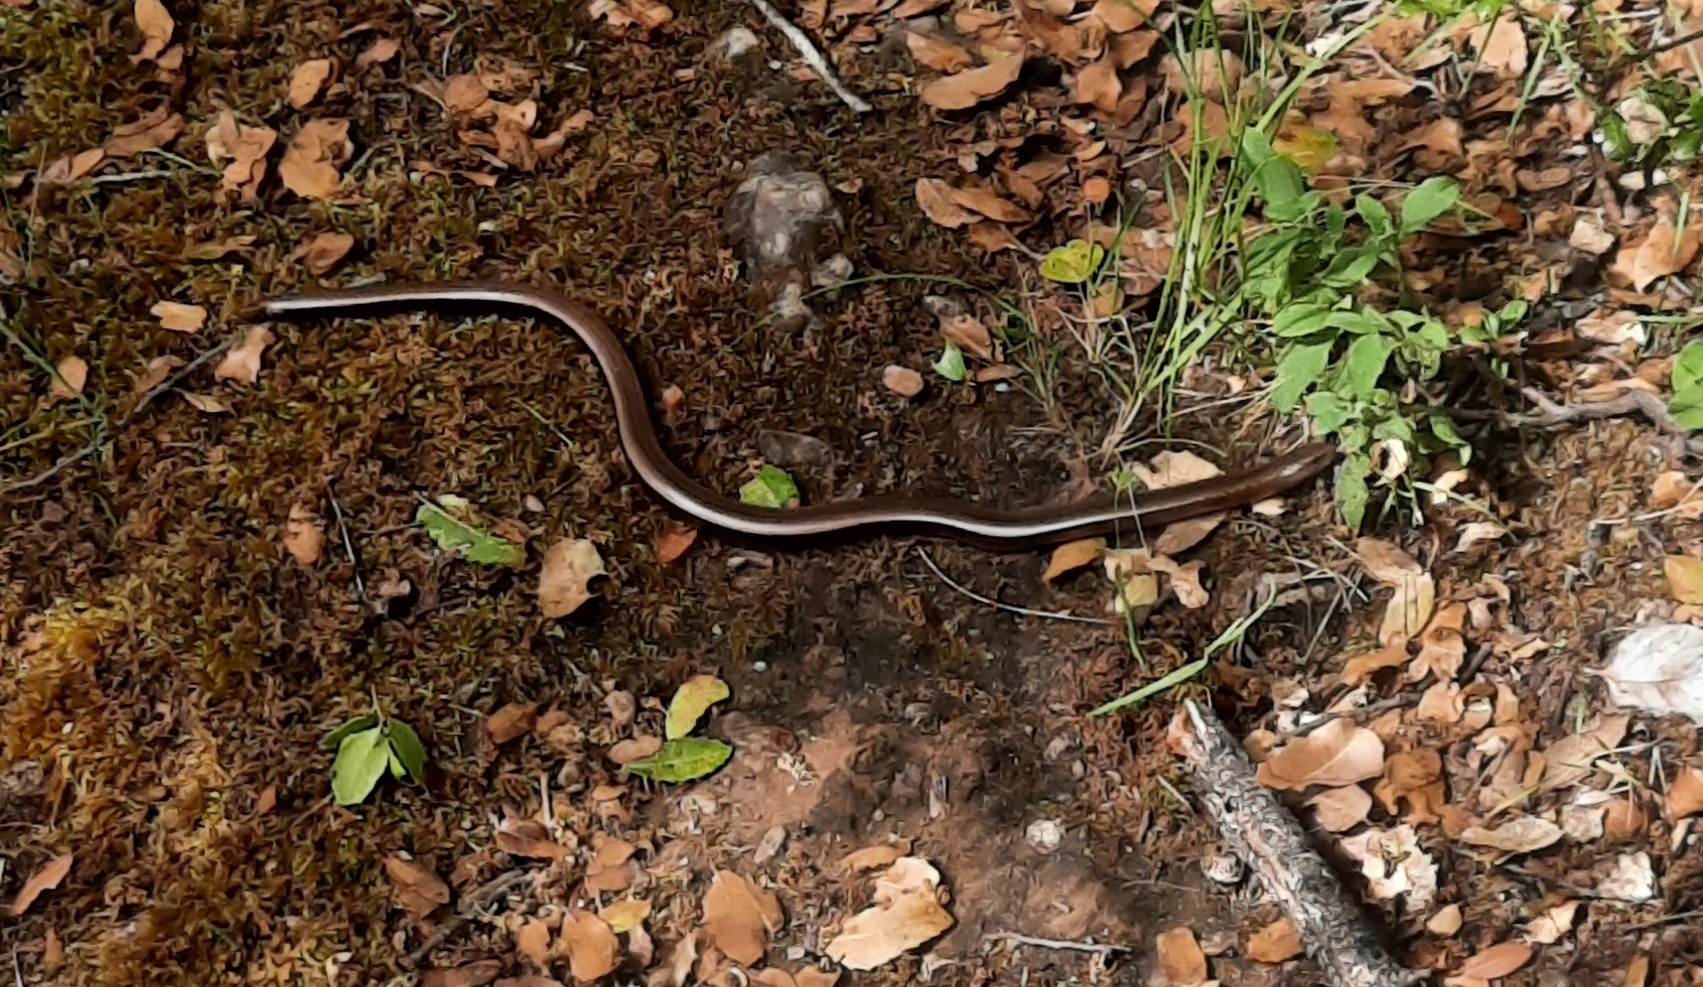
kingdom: Animalia
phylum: Chordata
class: Squamata
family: Anguidae
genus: Anguis
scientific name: Anguis cephallonica
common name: Peloponnese slow worm
